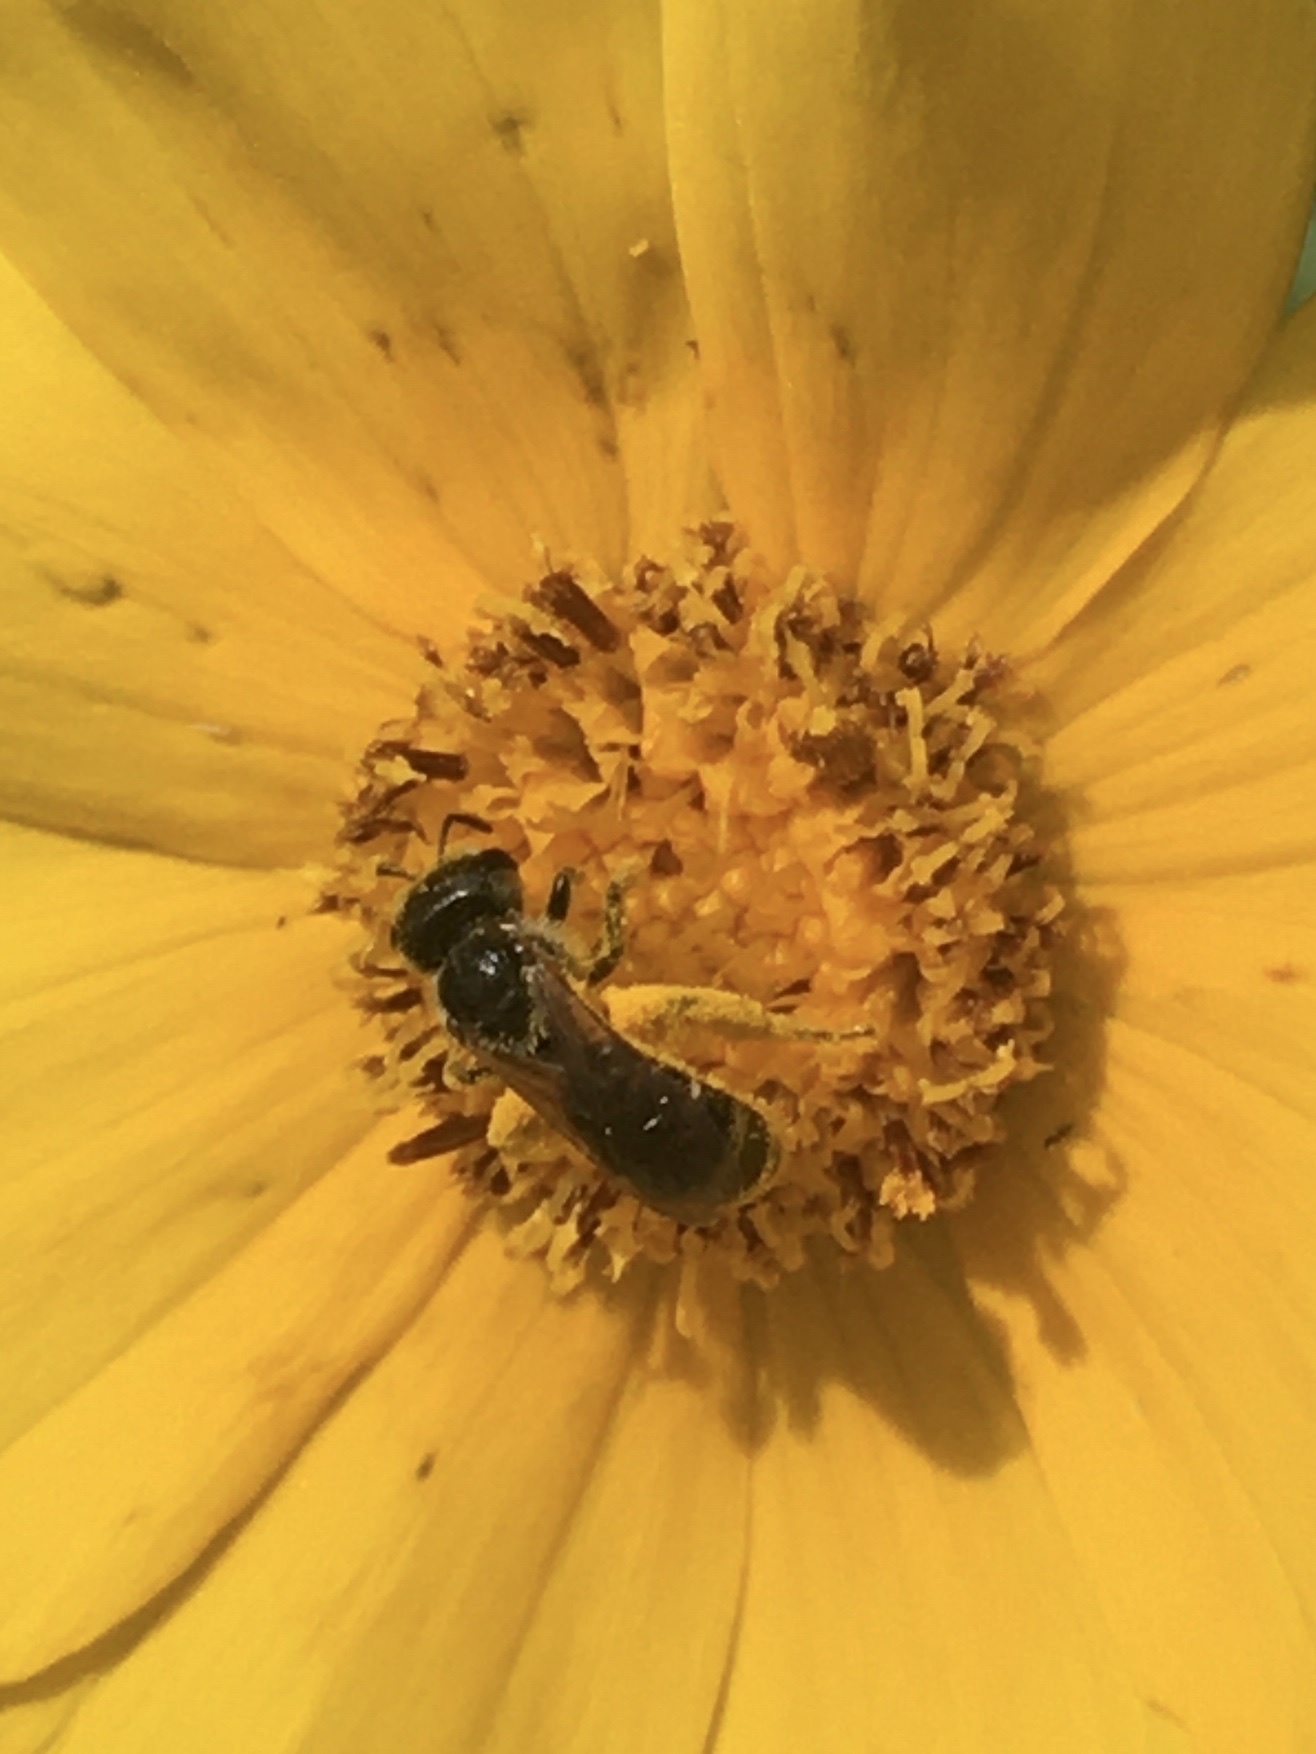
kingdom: Animalia
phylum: Arthropoda
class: Insecta
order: Hymenoptera
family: Halictidae
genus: Halictus
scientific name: Halictus poeyi
